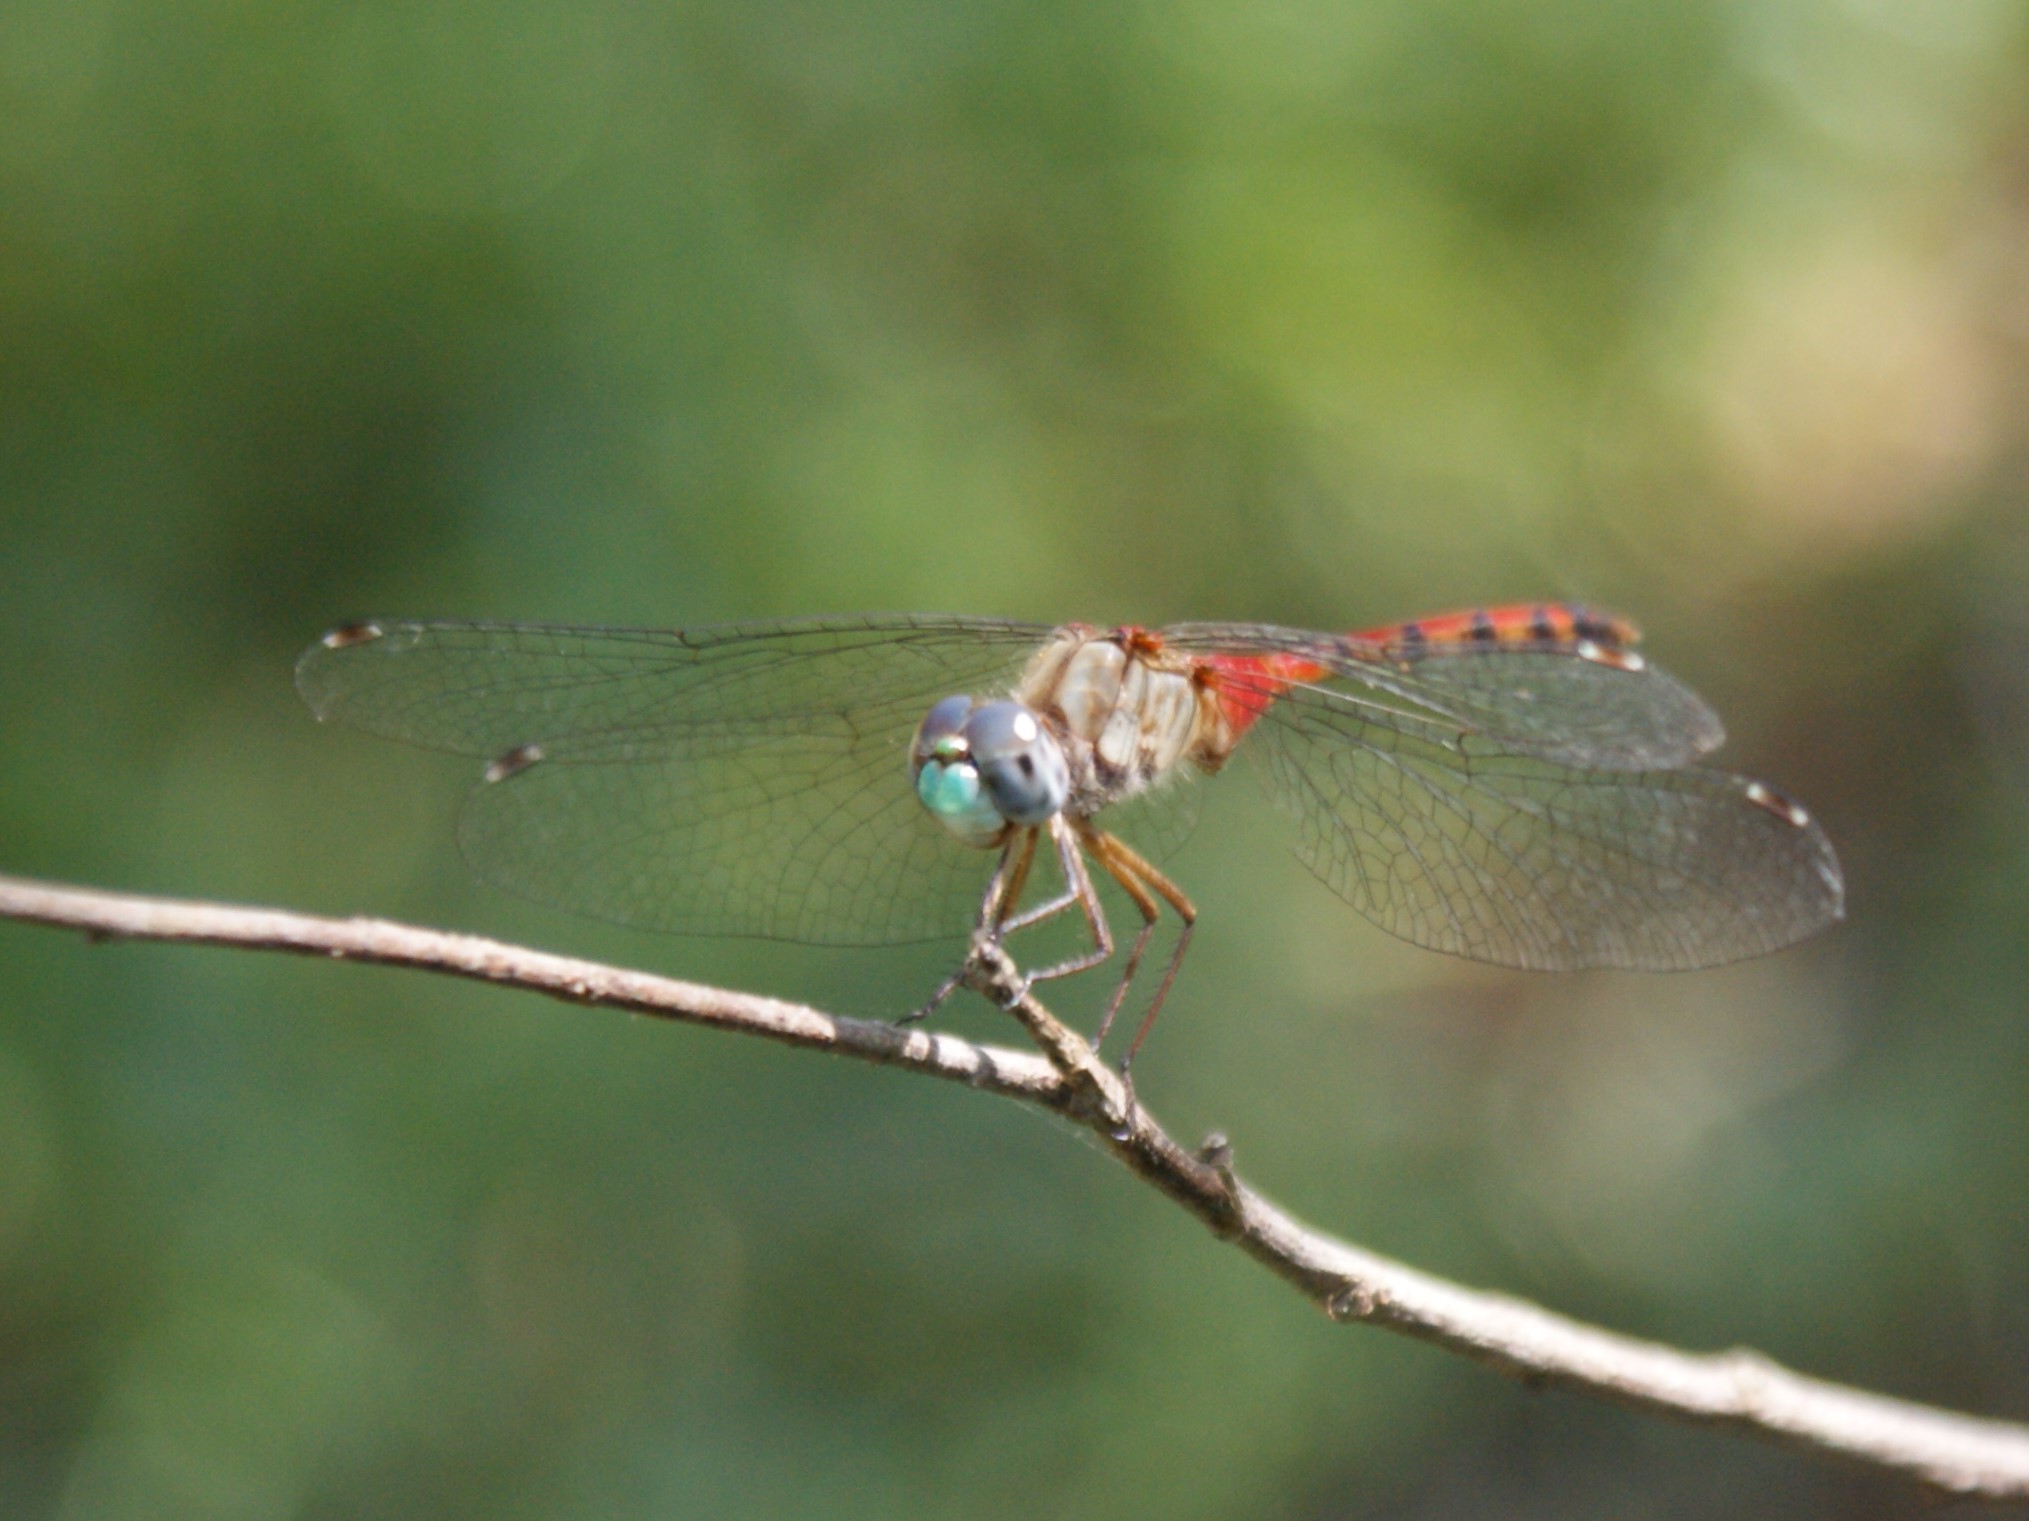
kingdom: Animalia
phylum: Arthropoda
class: Insecta
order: Odonata
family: Libellulidae
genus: Sympetrum
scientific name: Sympetrum ambiguum
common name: Blue-faced meadowhawk
